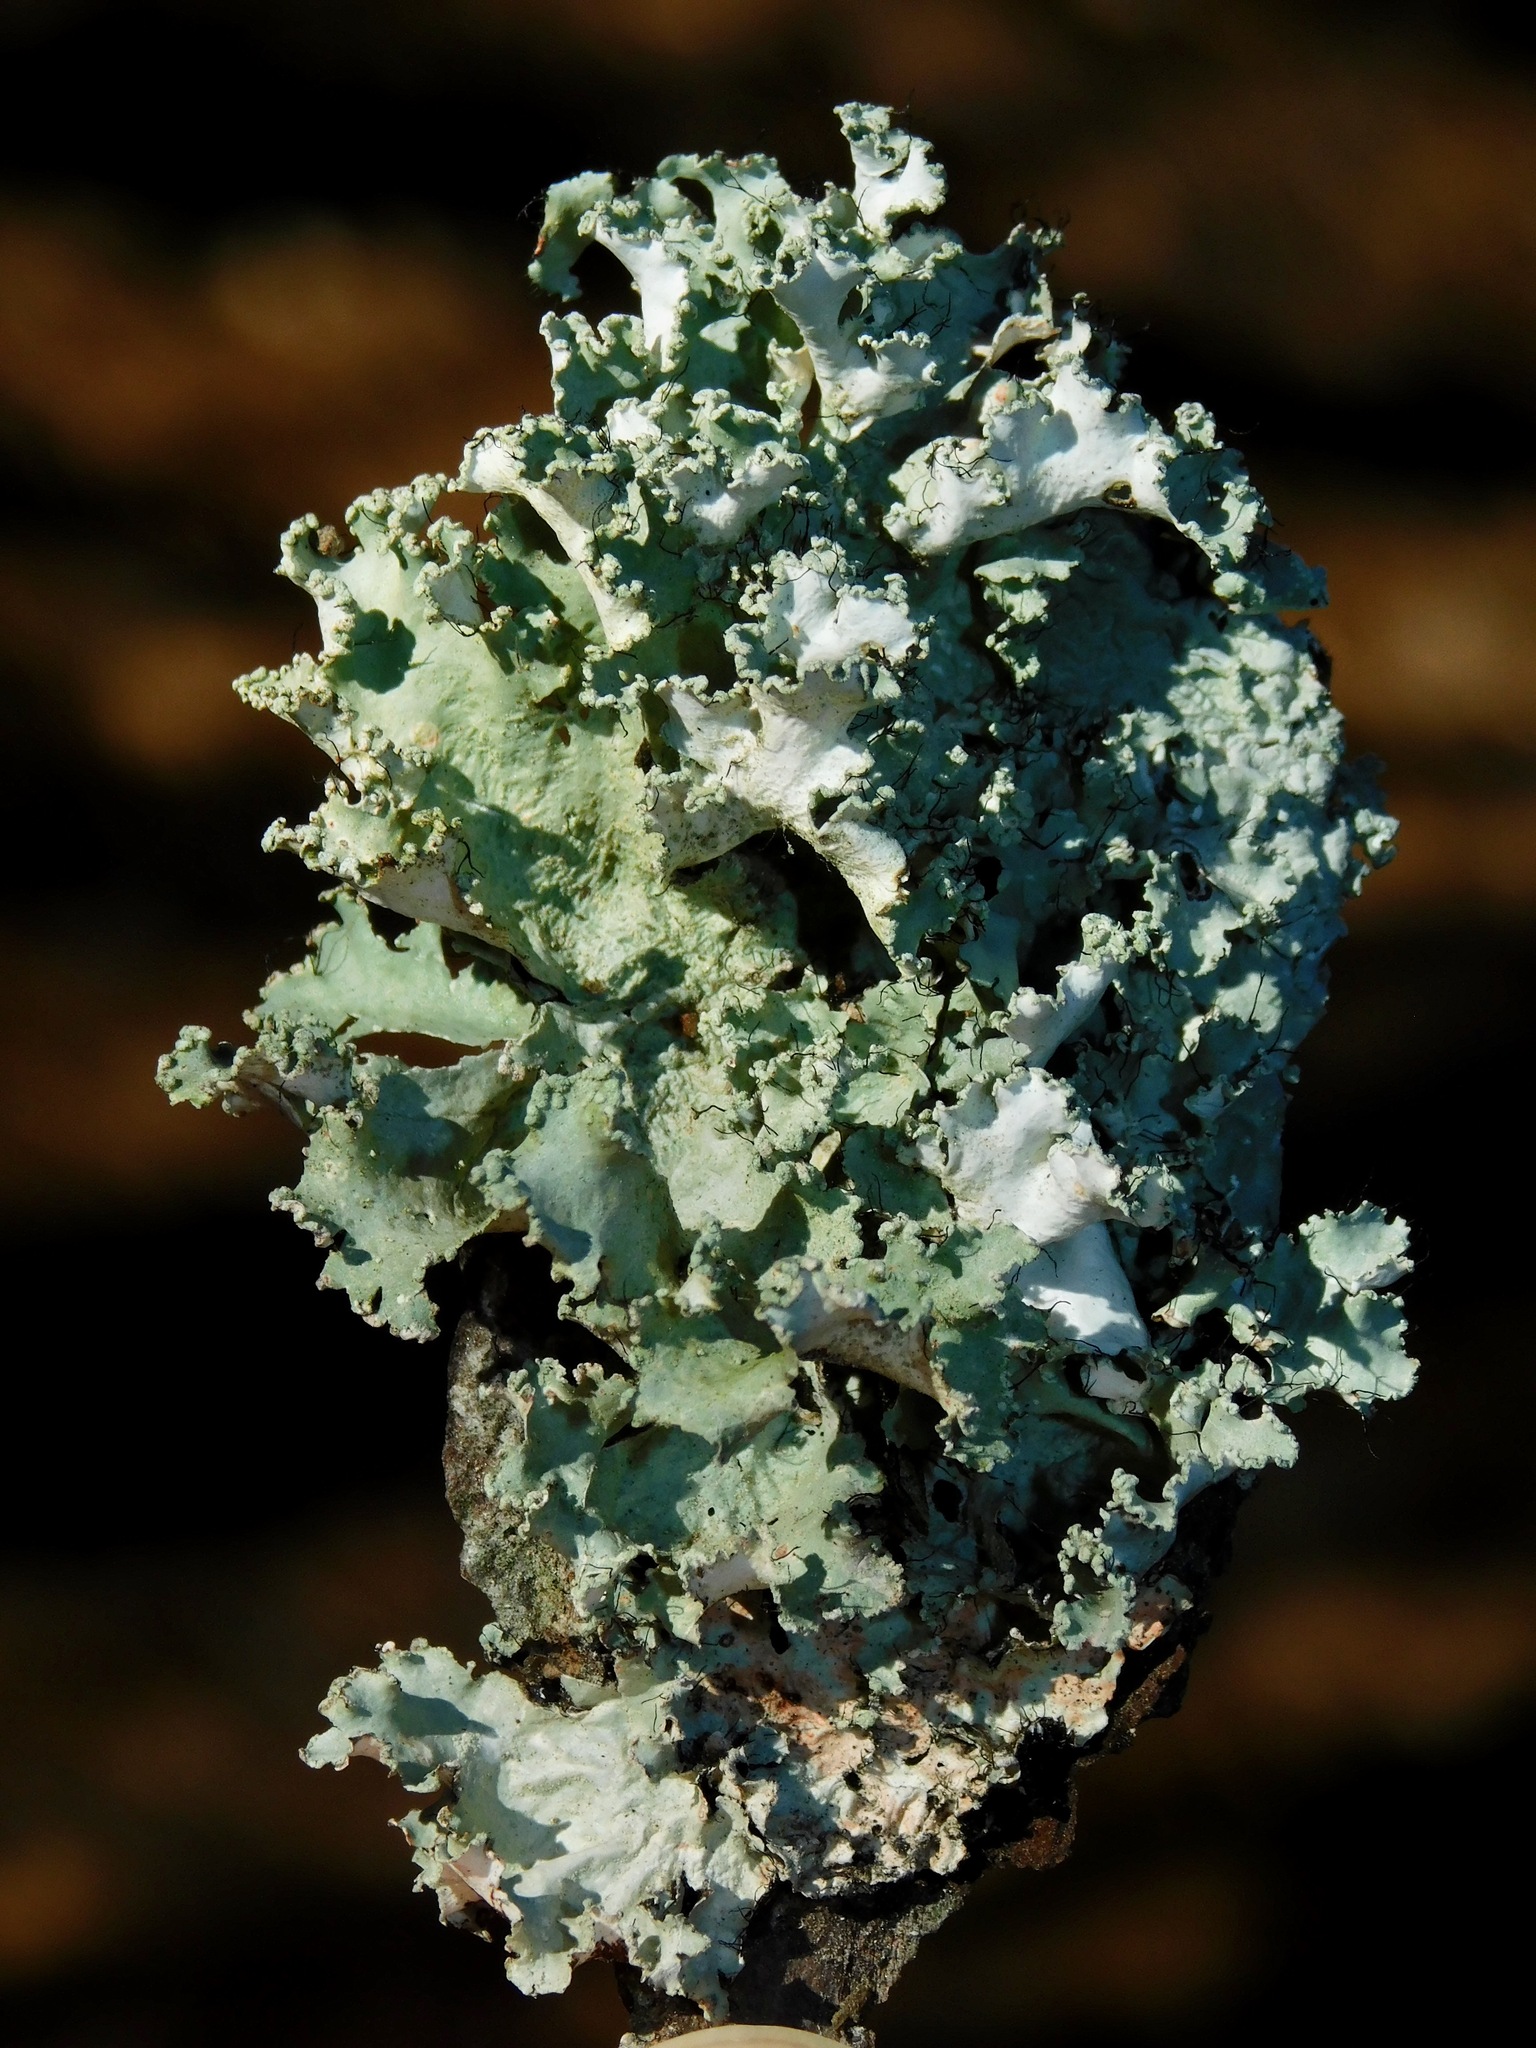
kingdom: Fungi
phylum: Ascomycota
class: Lecanoromycetes
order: Lecanorales
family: Parmeliaceae
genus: Parmotrema
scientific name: Parmotrema hypotropum
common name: Powdered ruffle lichen
